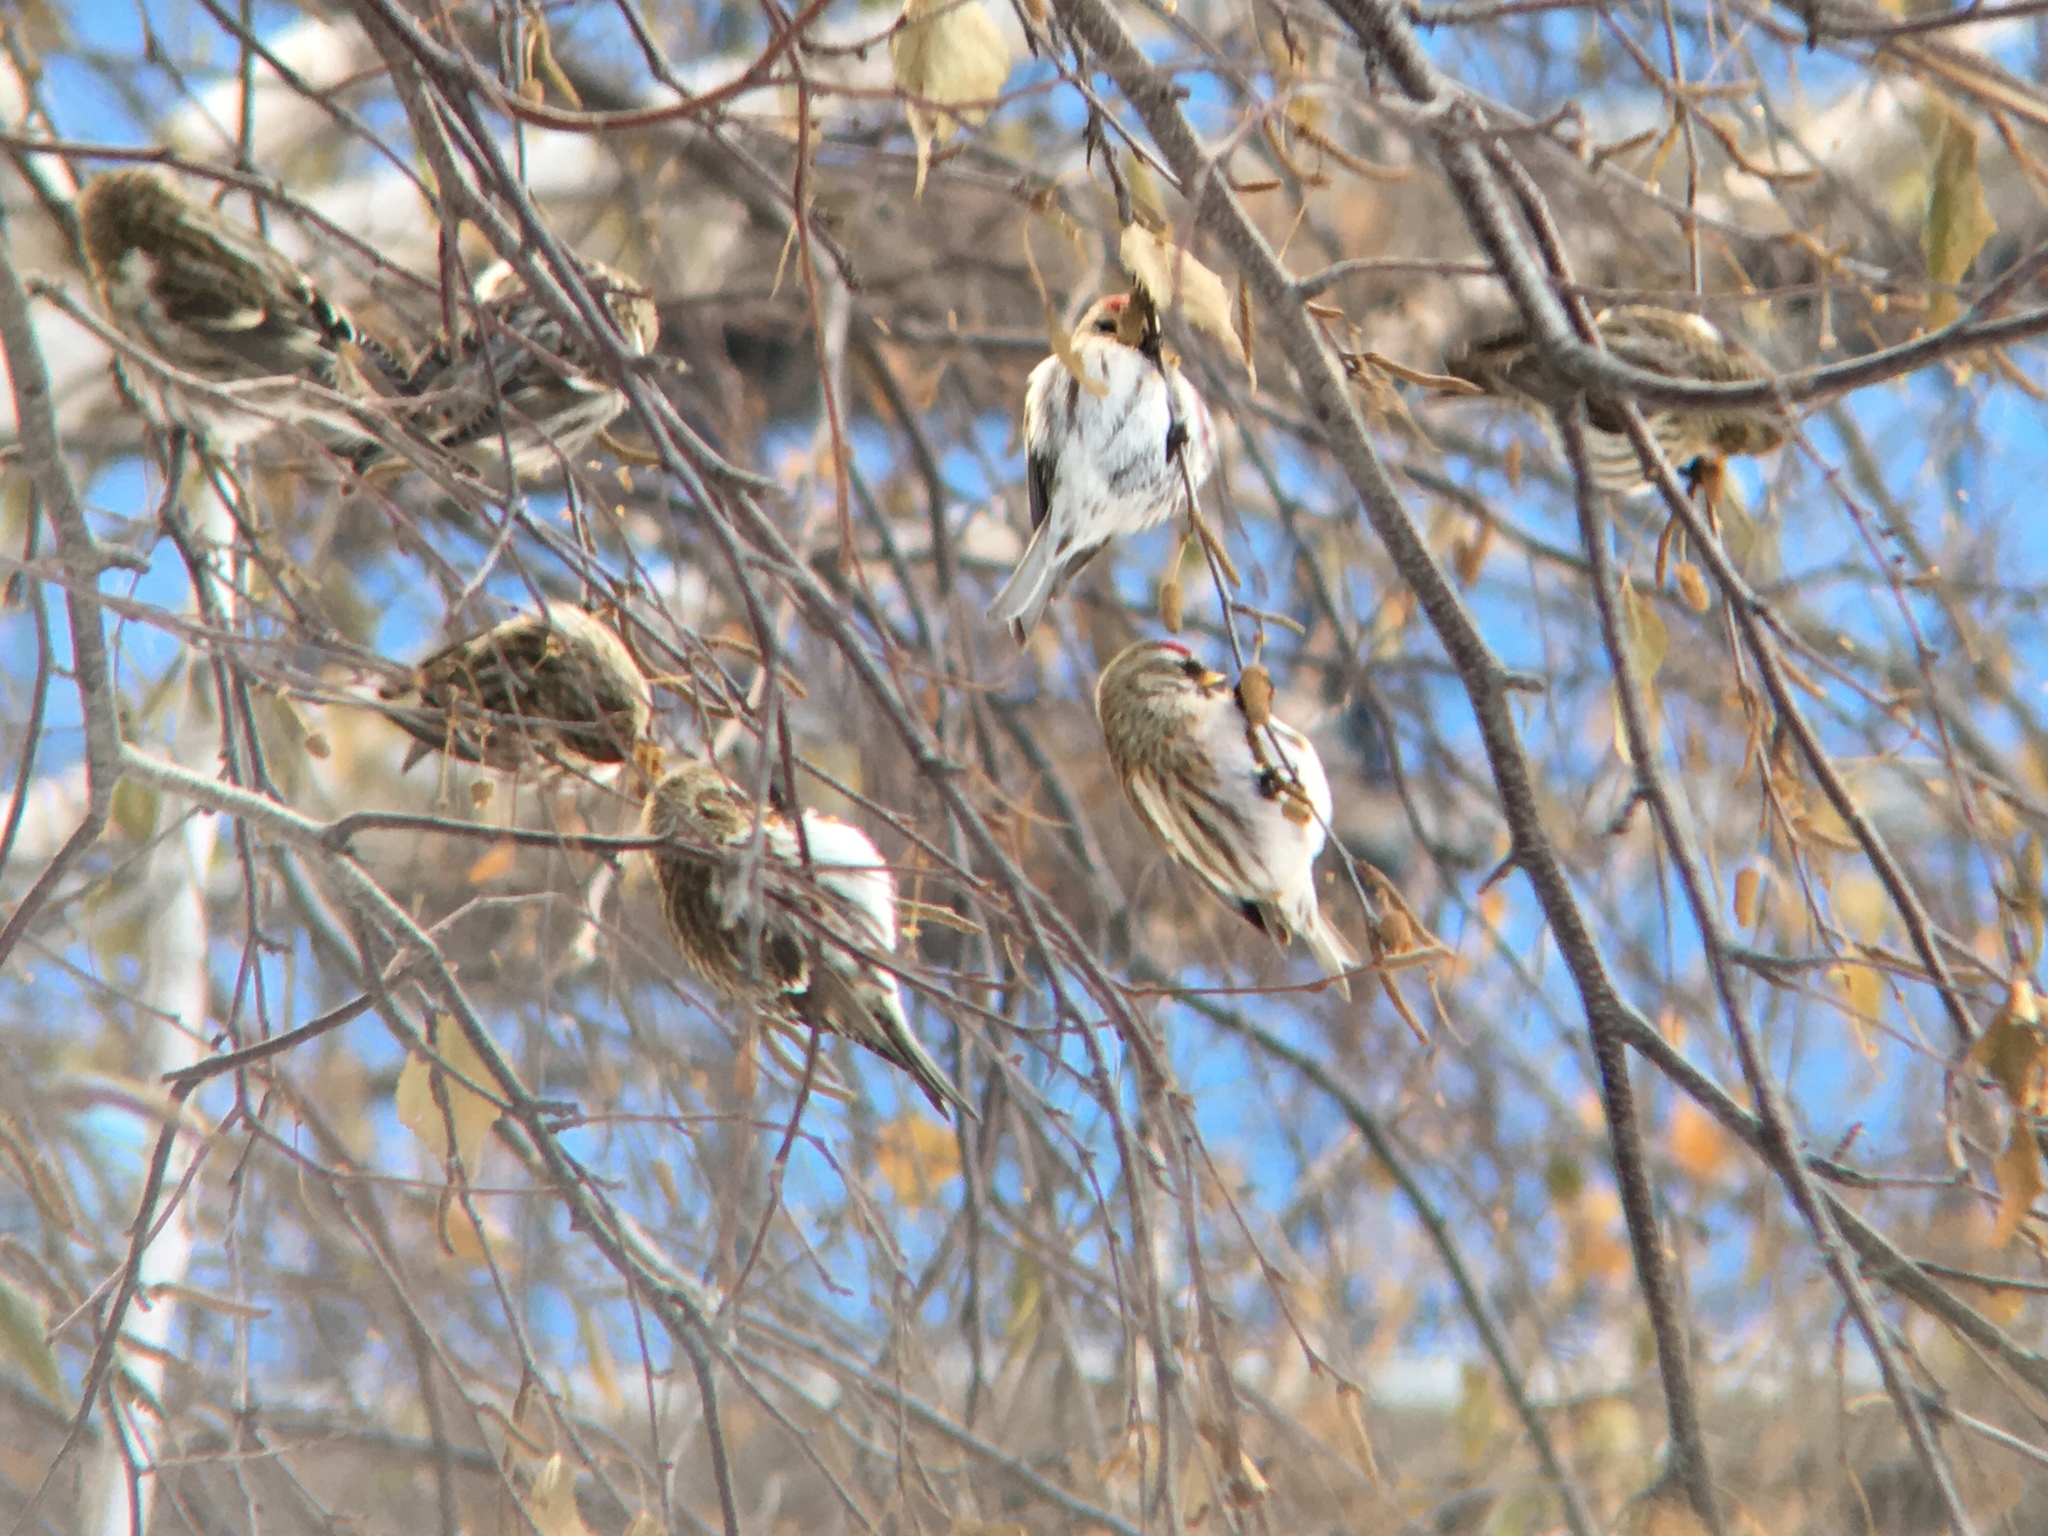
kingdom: Animalia
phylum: Chordata
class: Aves
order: Passeriformes
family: Fringillidae
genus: Acanthis
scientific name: Acanthis flammea
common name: Common redpoll
